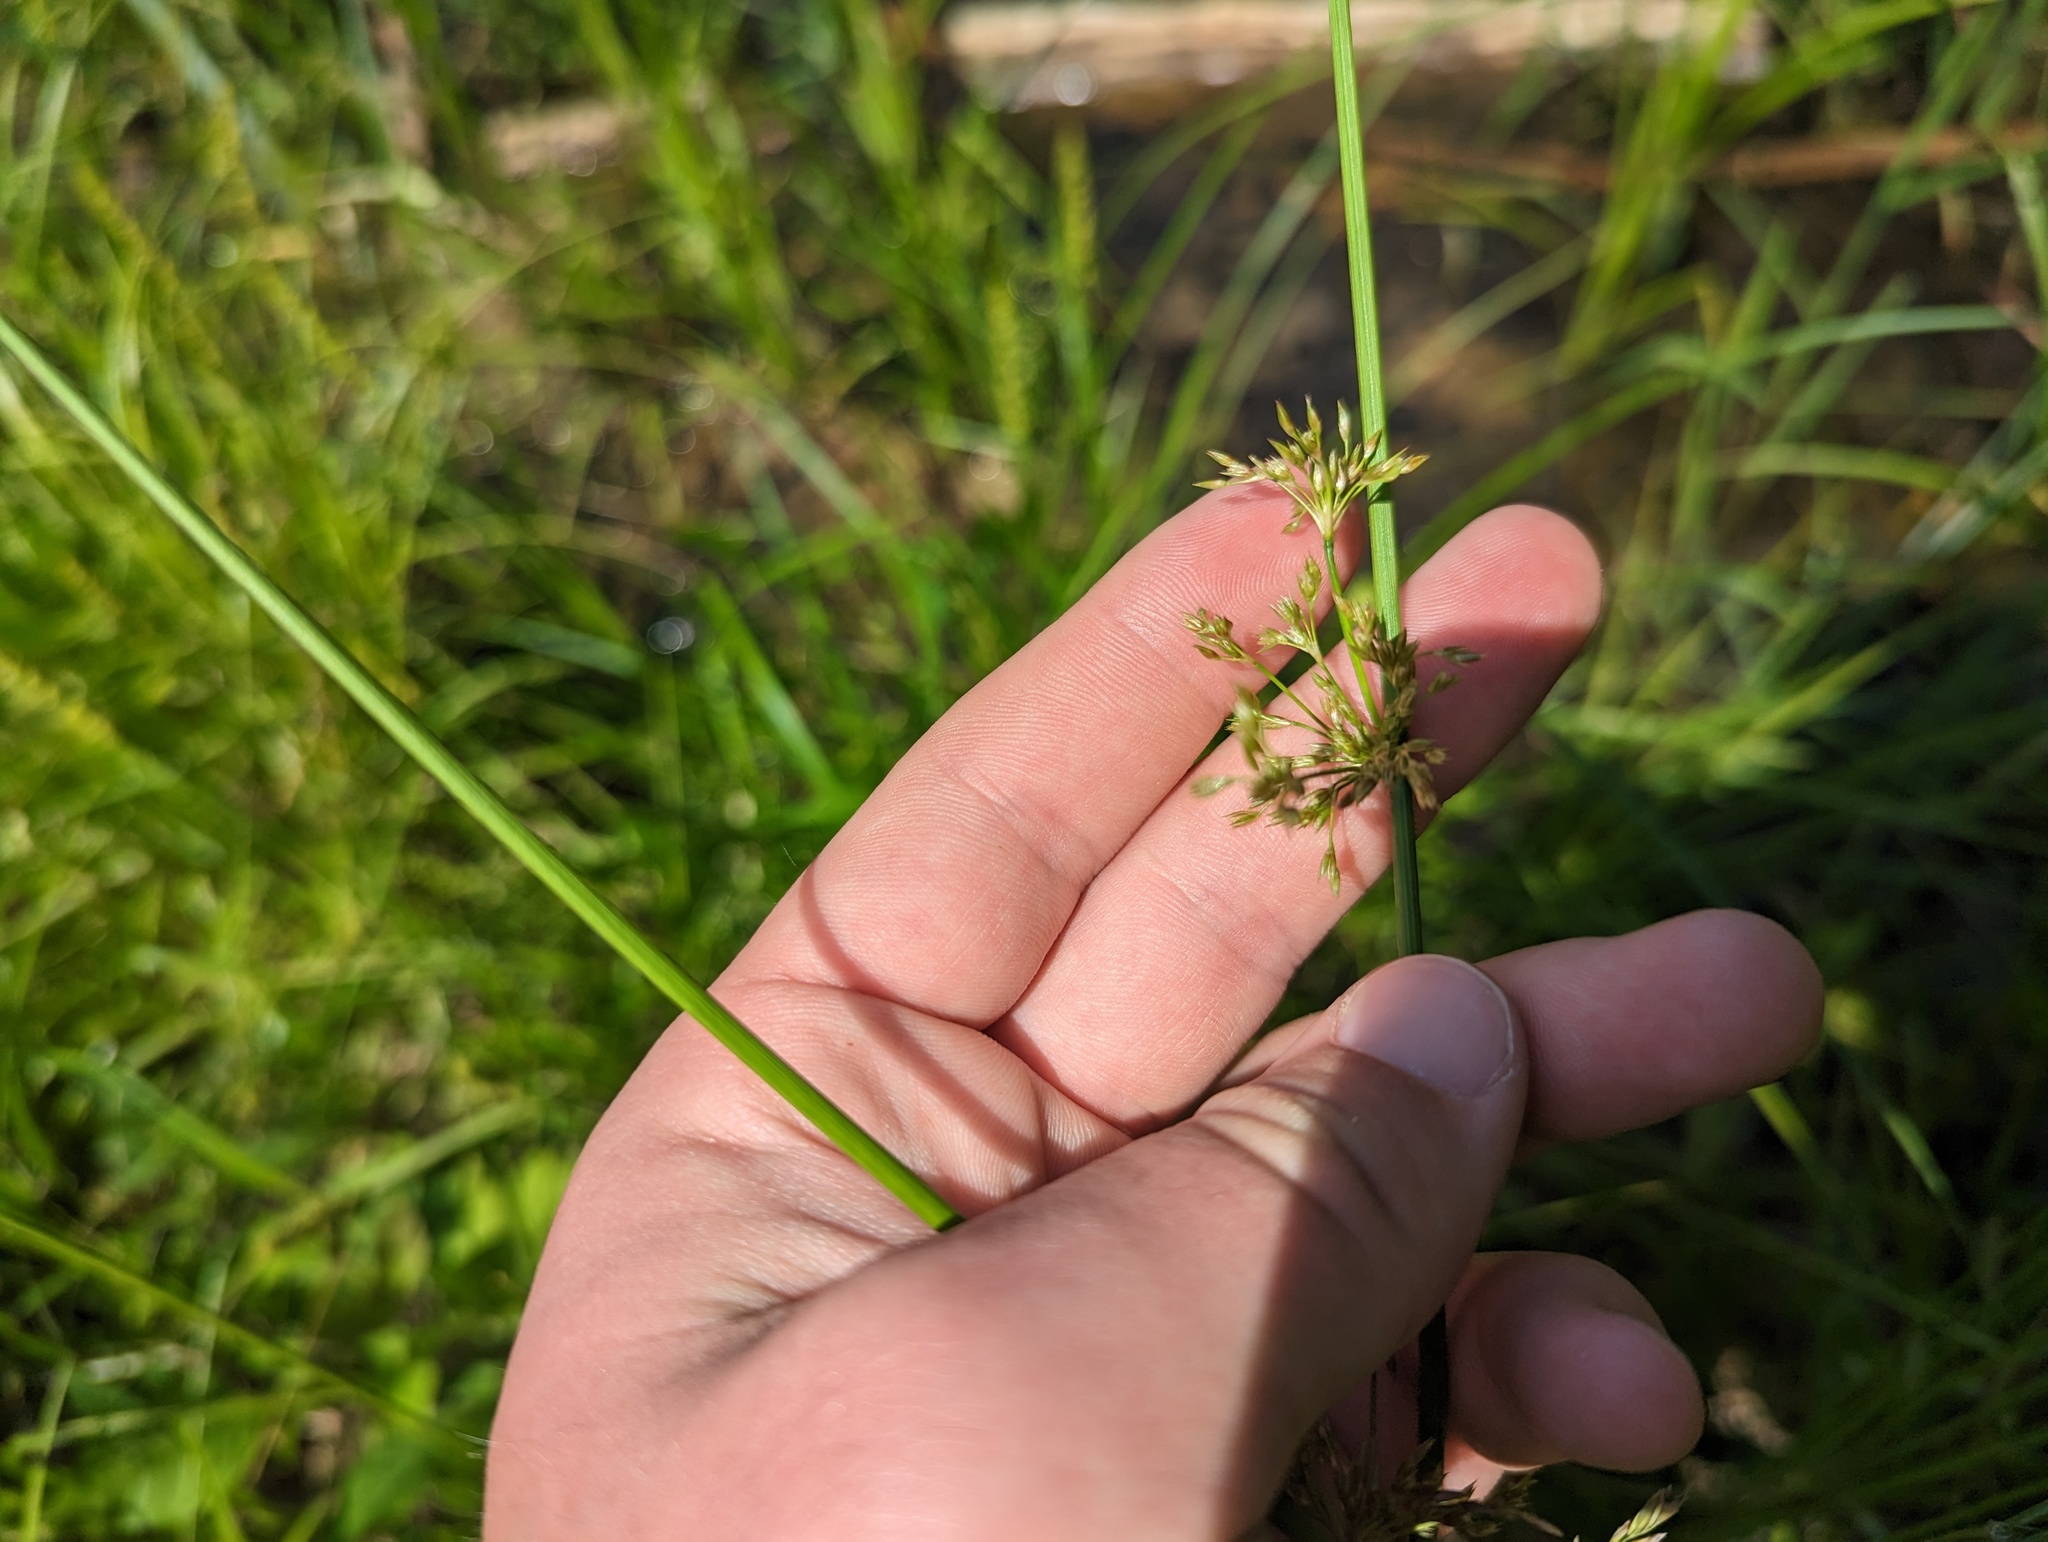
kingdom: Plantae
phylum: Tracheophyta
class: Liliopsida
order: Poales
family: Juncaceae
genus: Juncus
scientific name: Juncus effusus
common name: Soft rush
